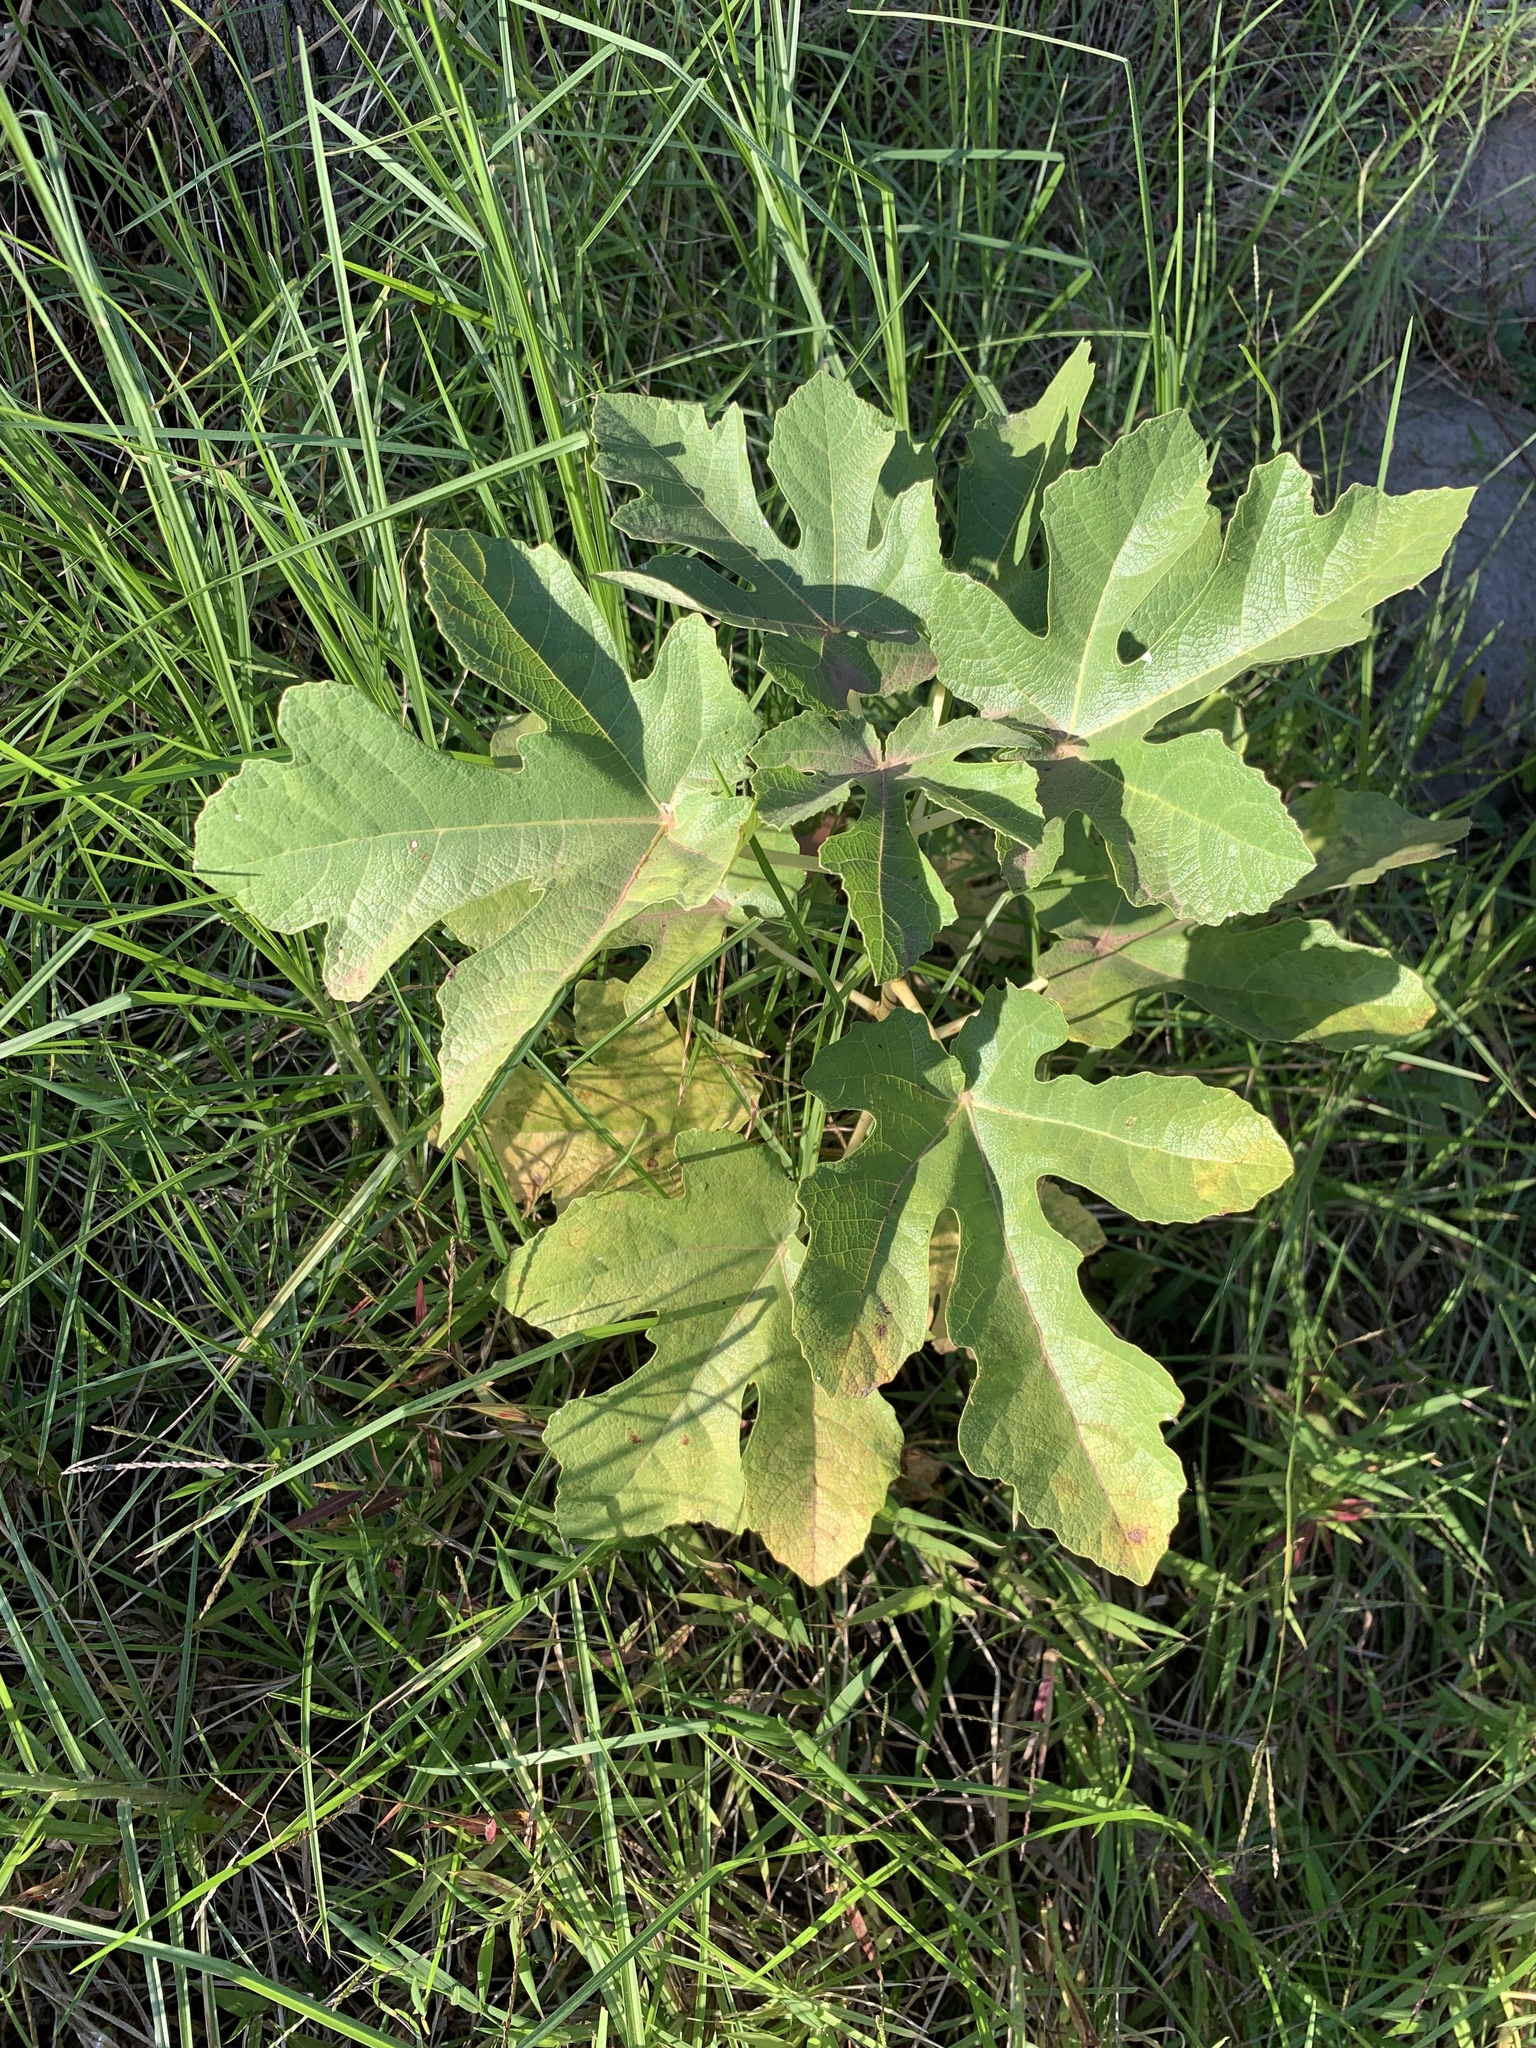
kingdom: Plantae
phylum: Tracheophyta
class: Magnoliopsida
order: Rosales
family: Moraceae
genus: Ficus
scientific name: Ficus carica
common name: Fig
